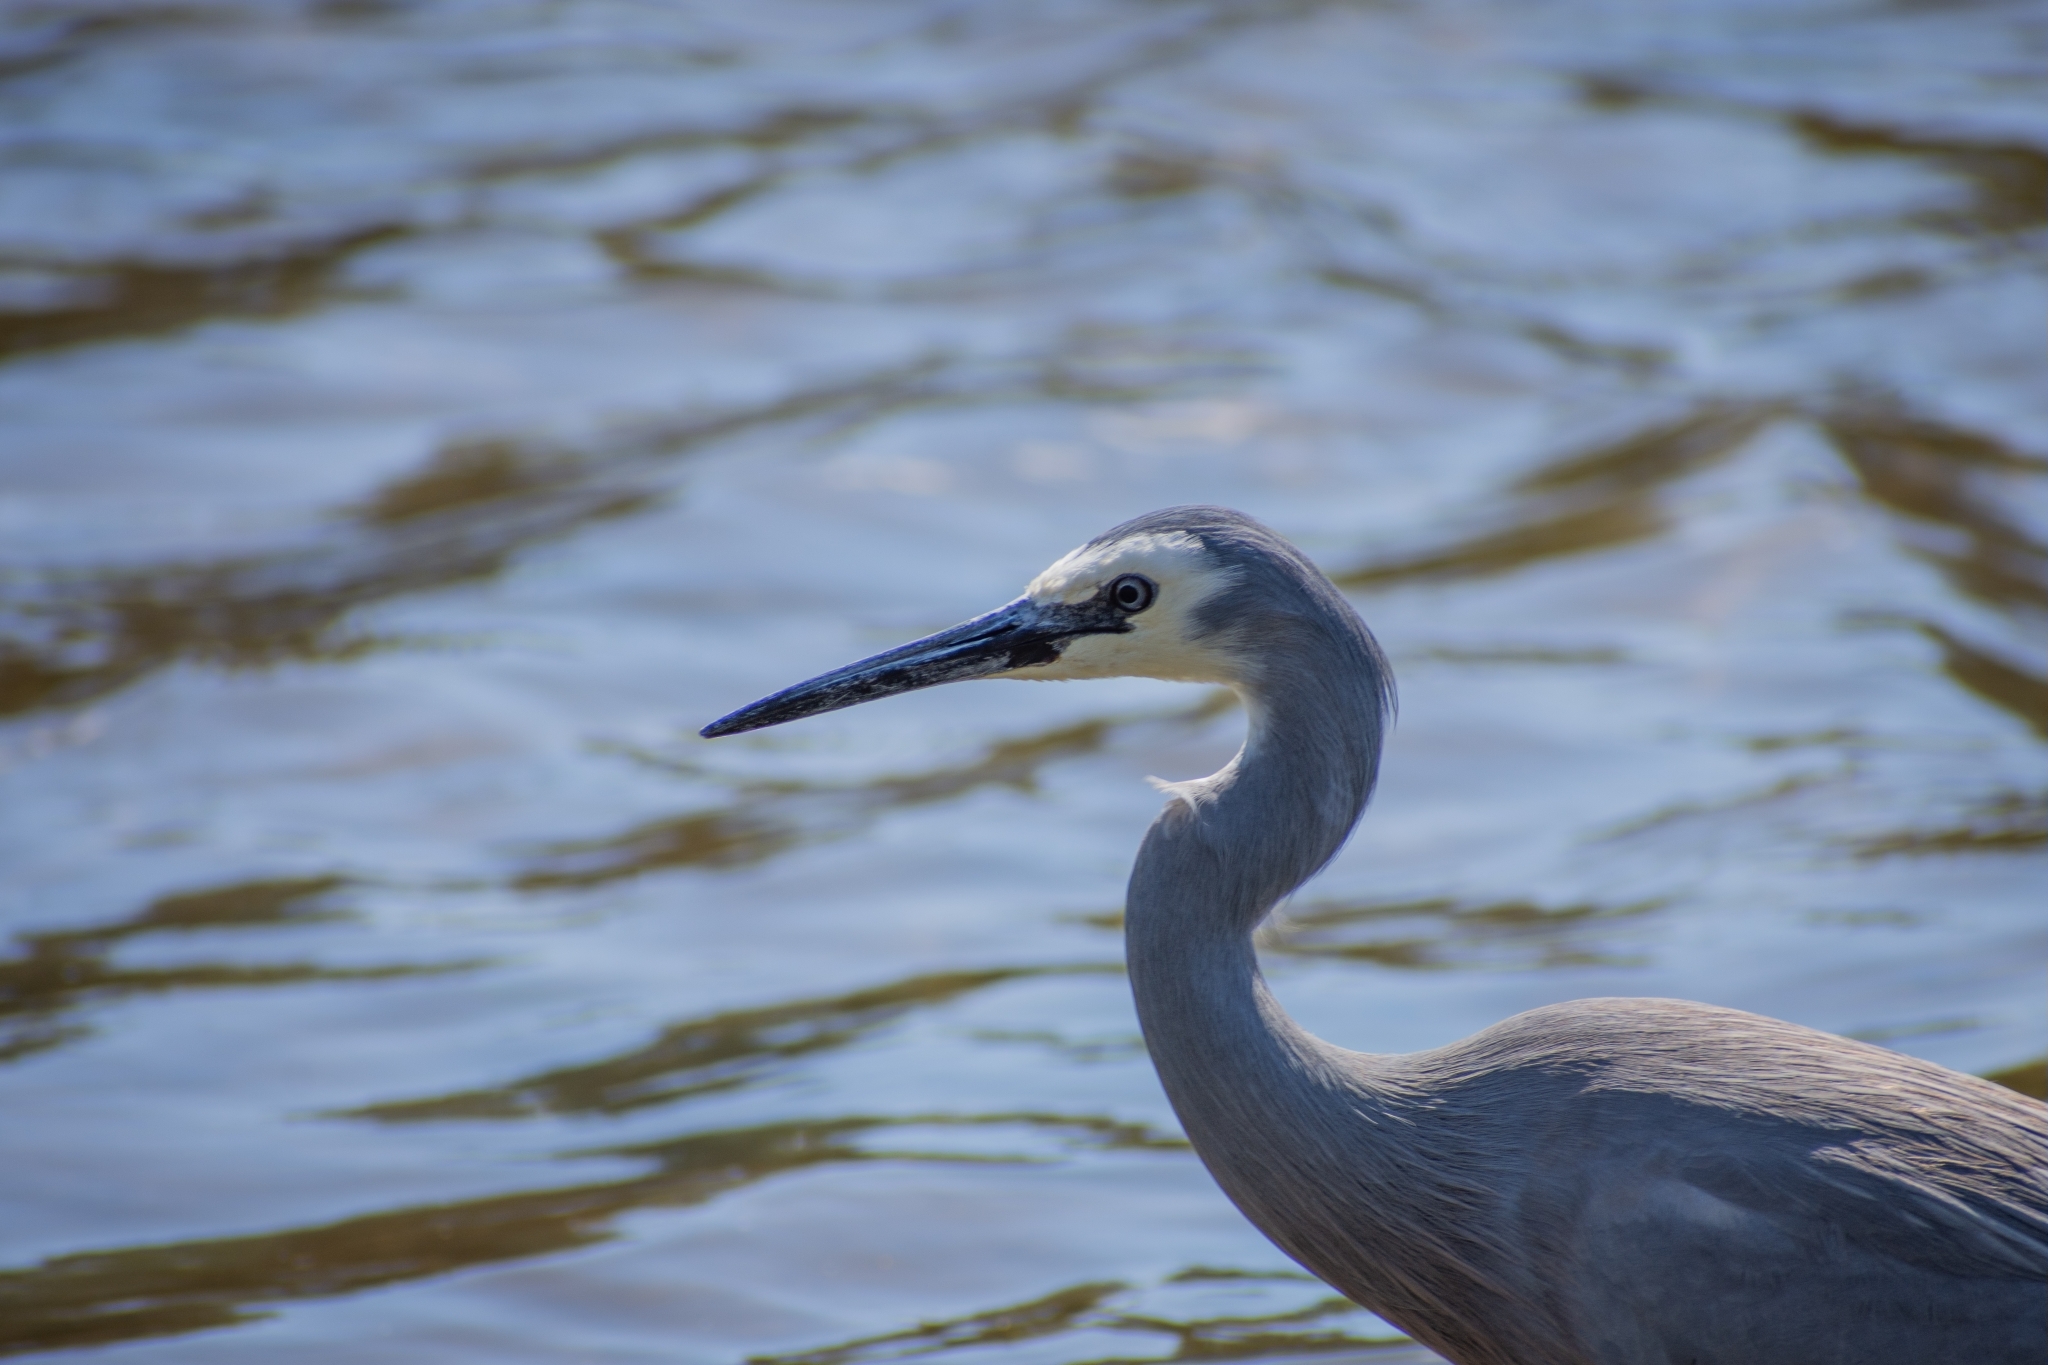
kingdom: Animalia
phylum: Chordata
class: Aves
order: Pelecaniformes
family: Ardeidae
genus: Egretta
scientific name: Egretta novaehollandiae
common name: White-faced heron
